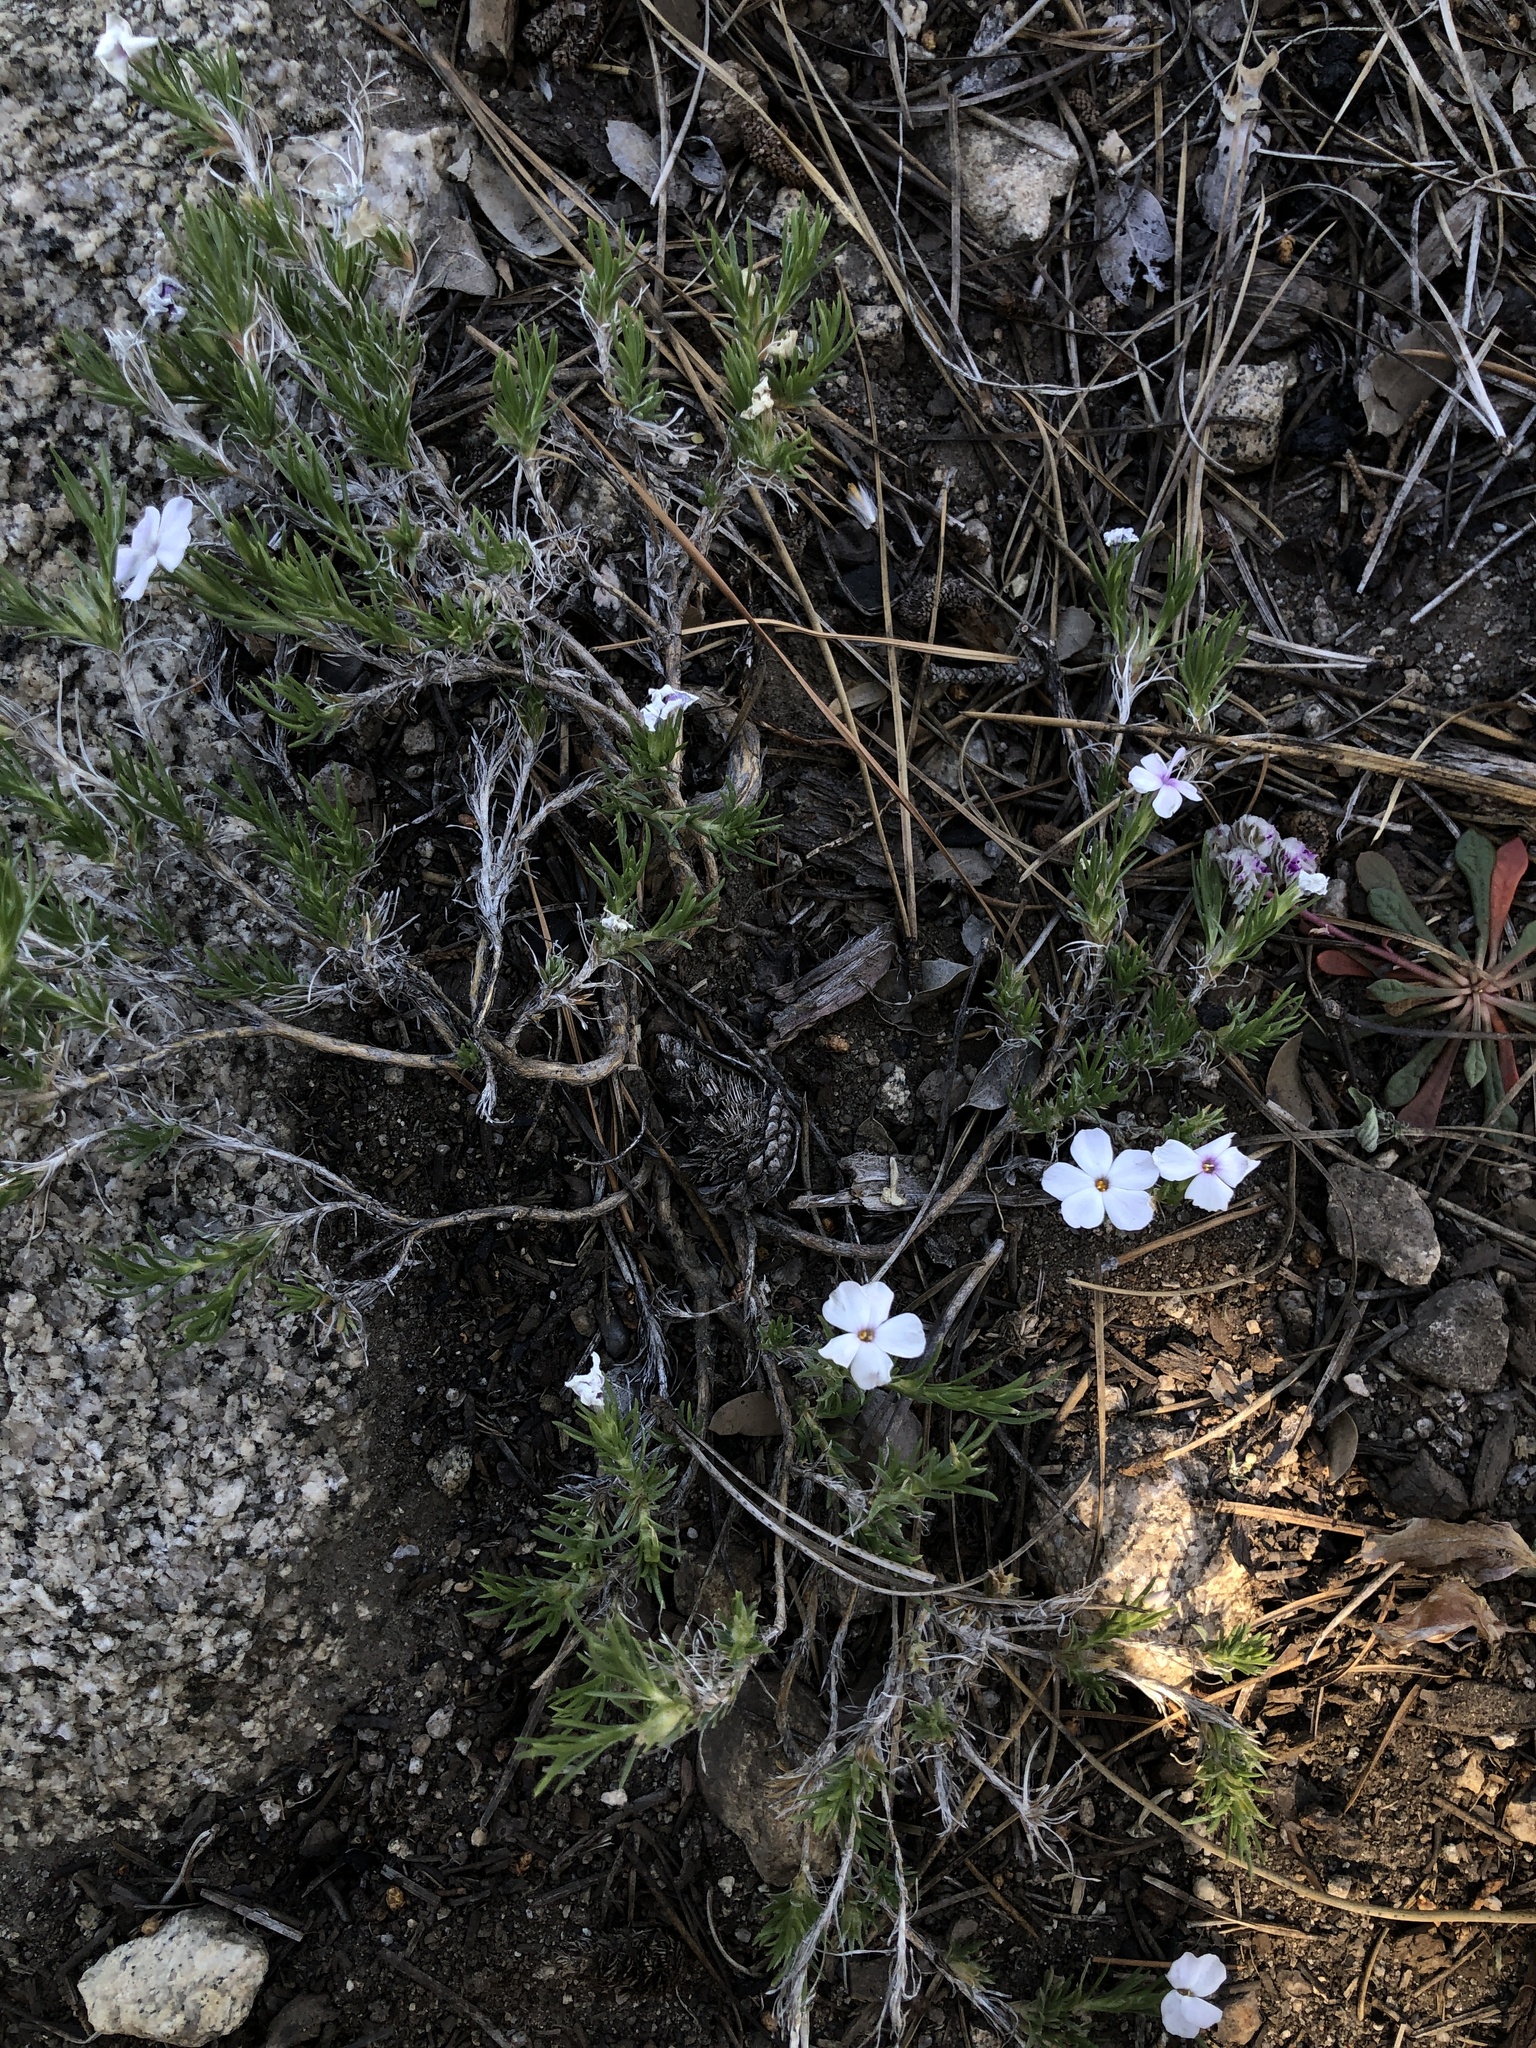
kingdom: Plantae
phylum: Tracheophyta
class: Magnoliopsida
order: Ericales
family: Polemoniaceae
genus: Phlox
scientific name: Phlox diffusa
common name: Mat phlox
